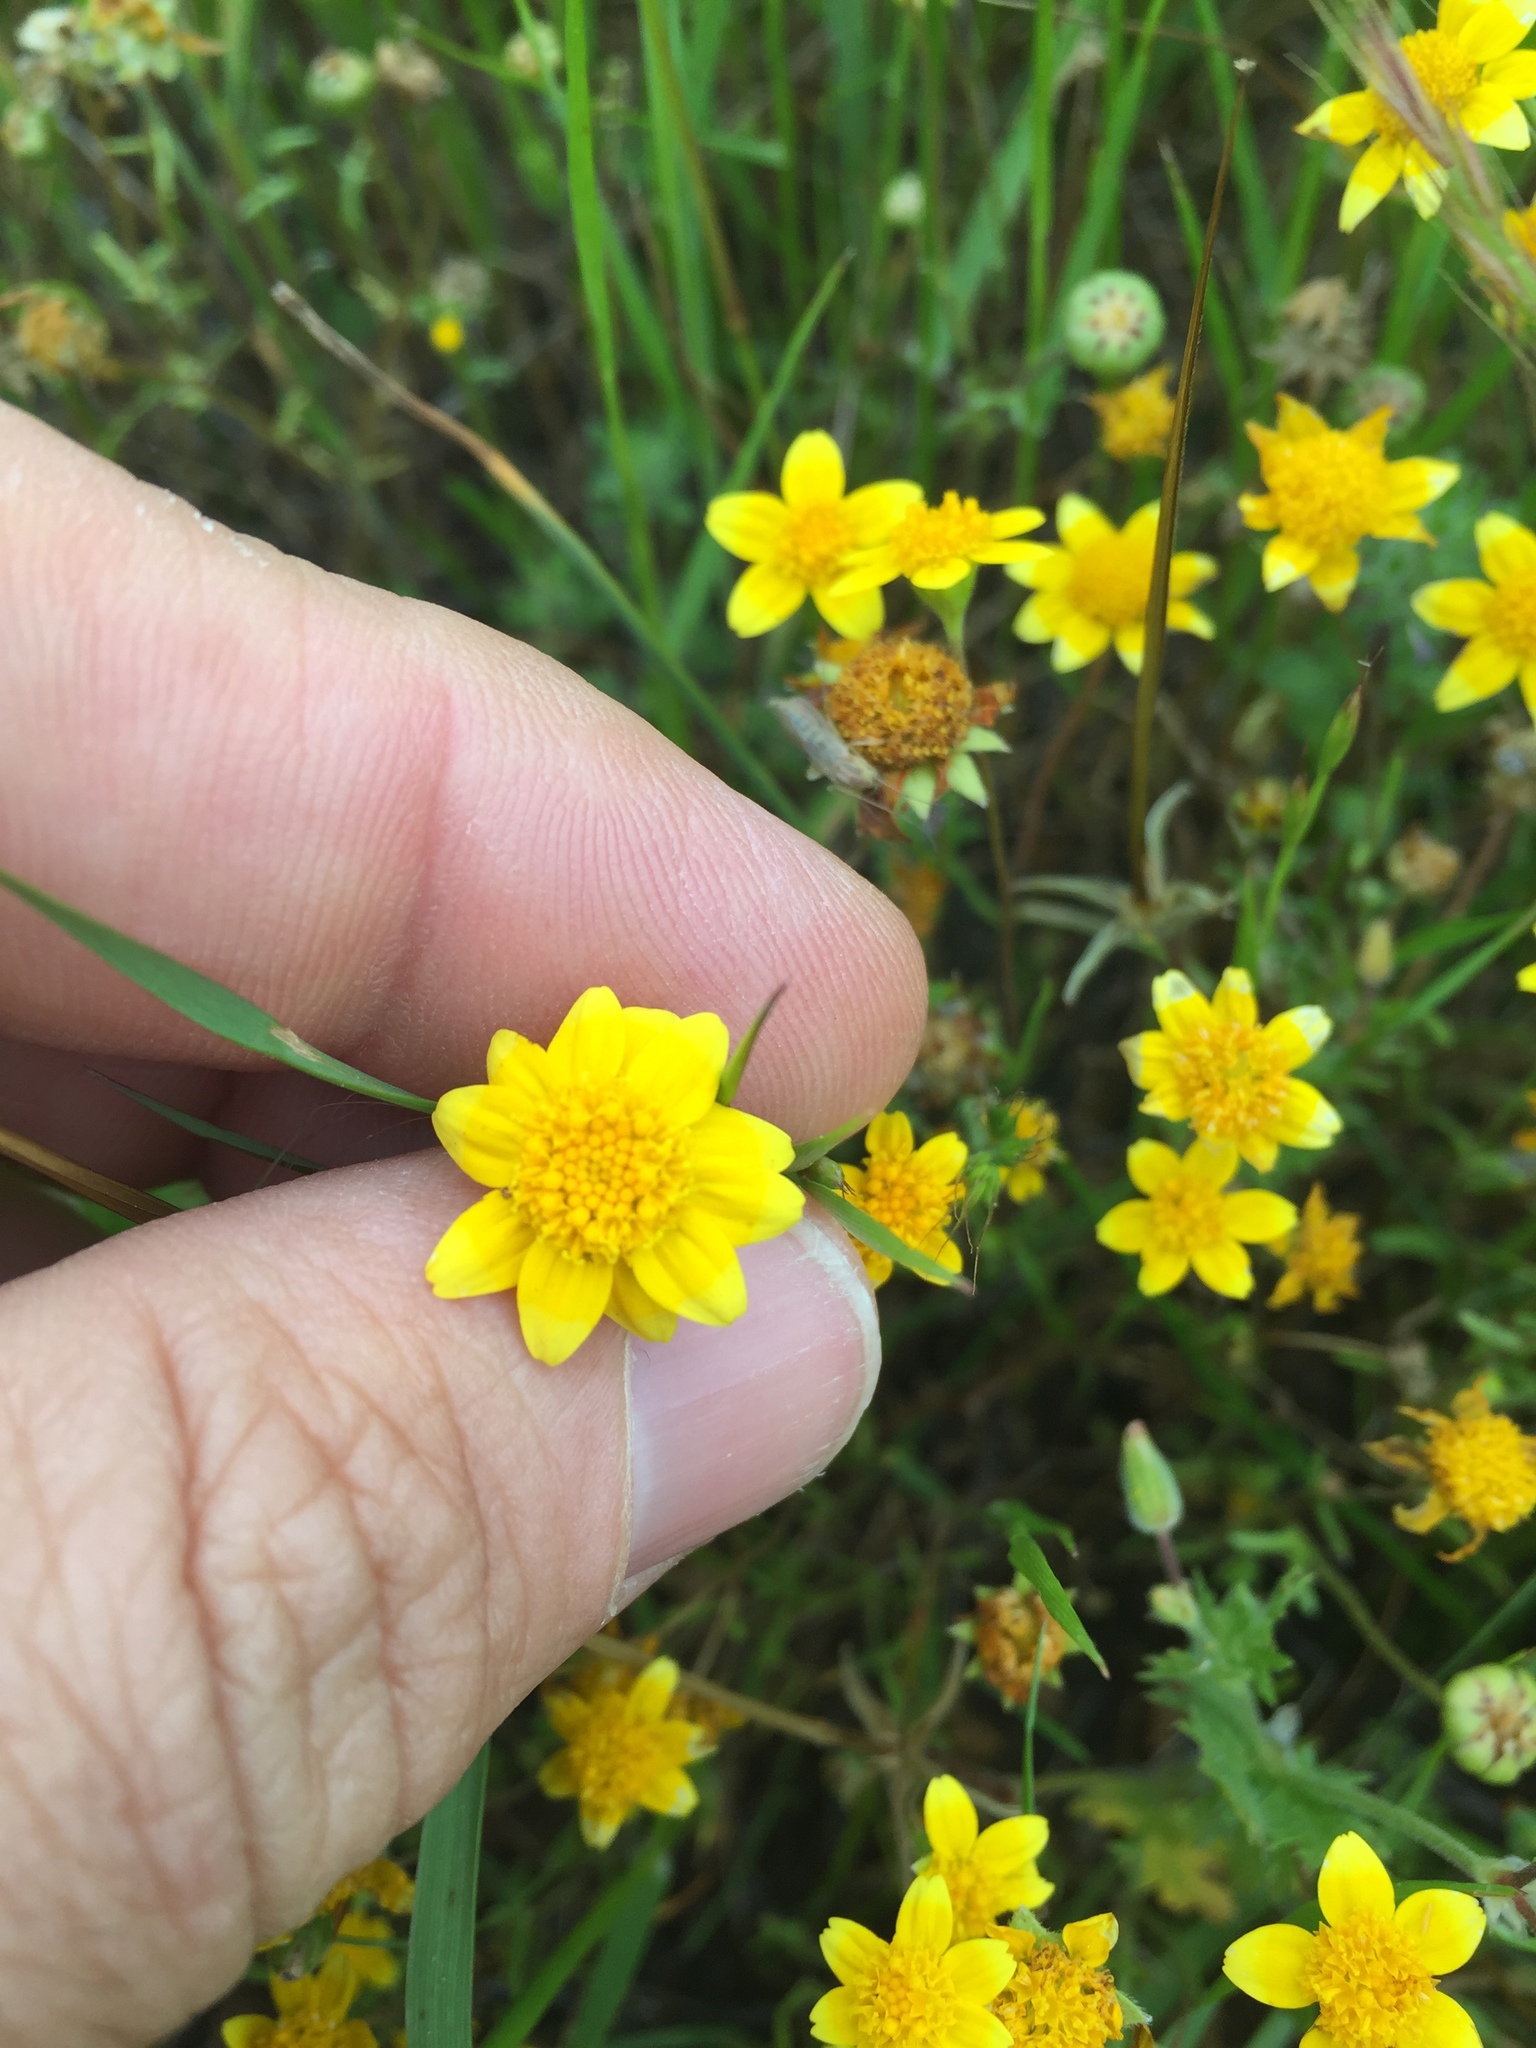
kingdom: Plantae
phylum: Tracheophyta
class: Magnoliopsida
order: Asterales
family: Asteraceae
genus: Lasthenia
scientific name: Lasthenia fremontii
